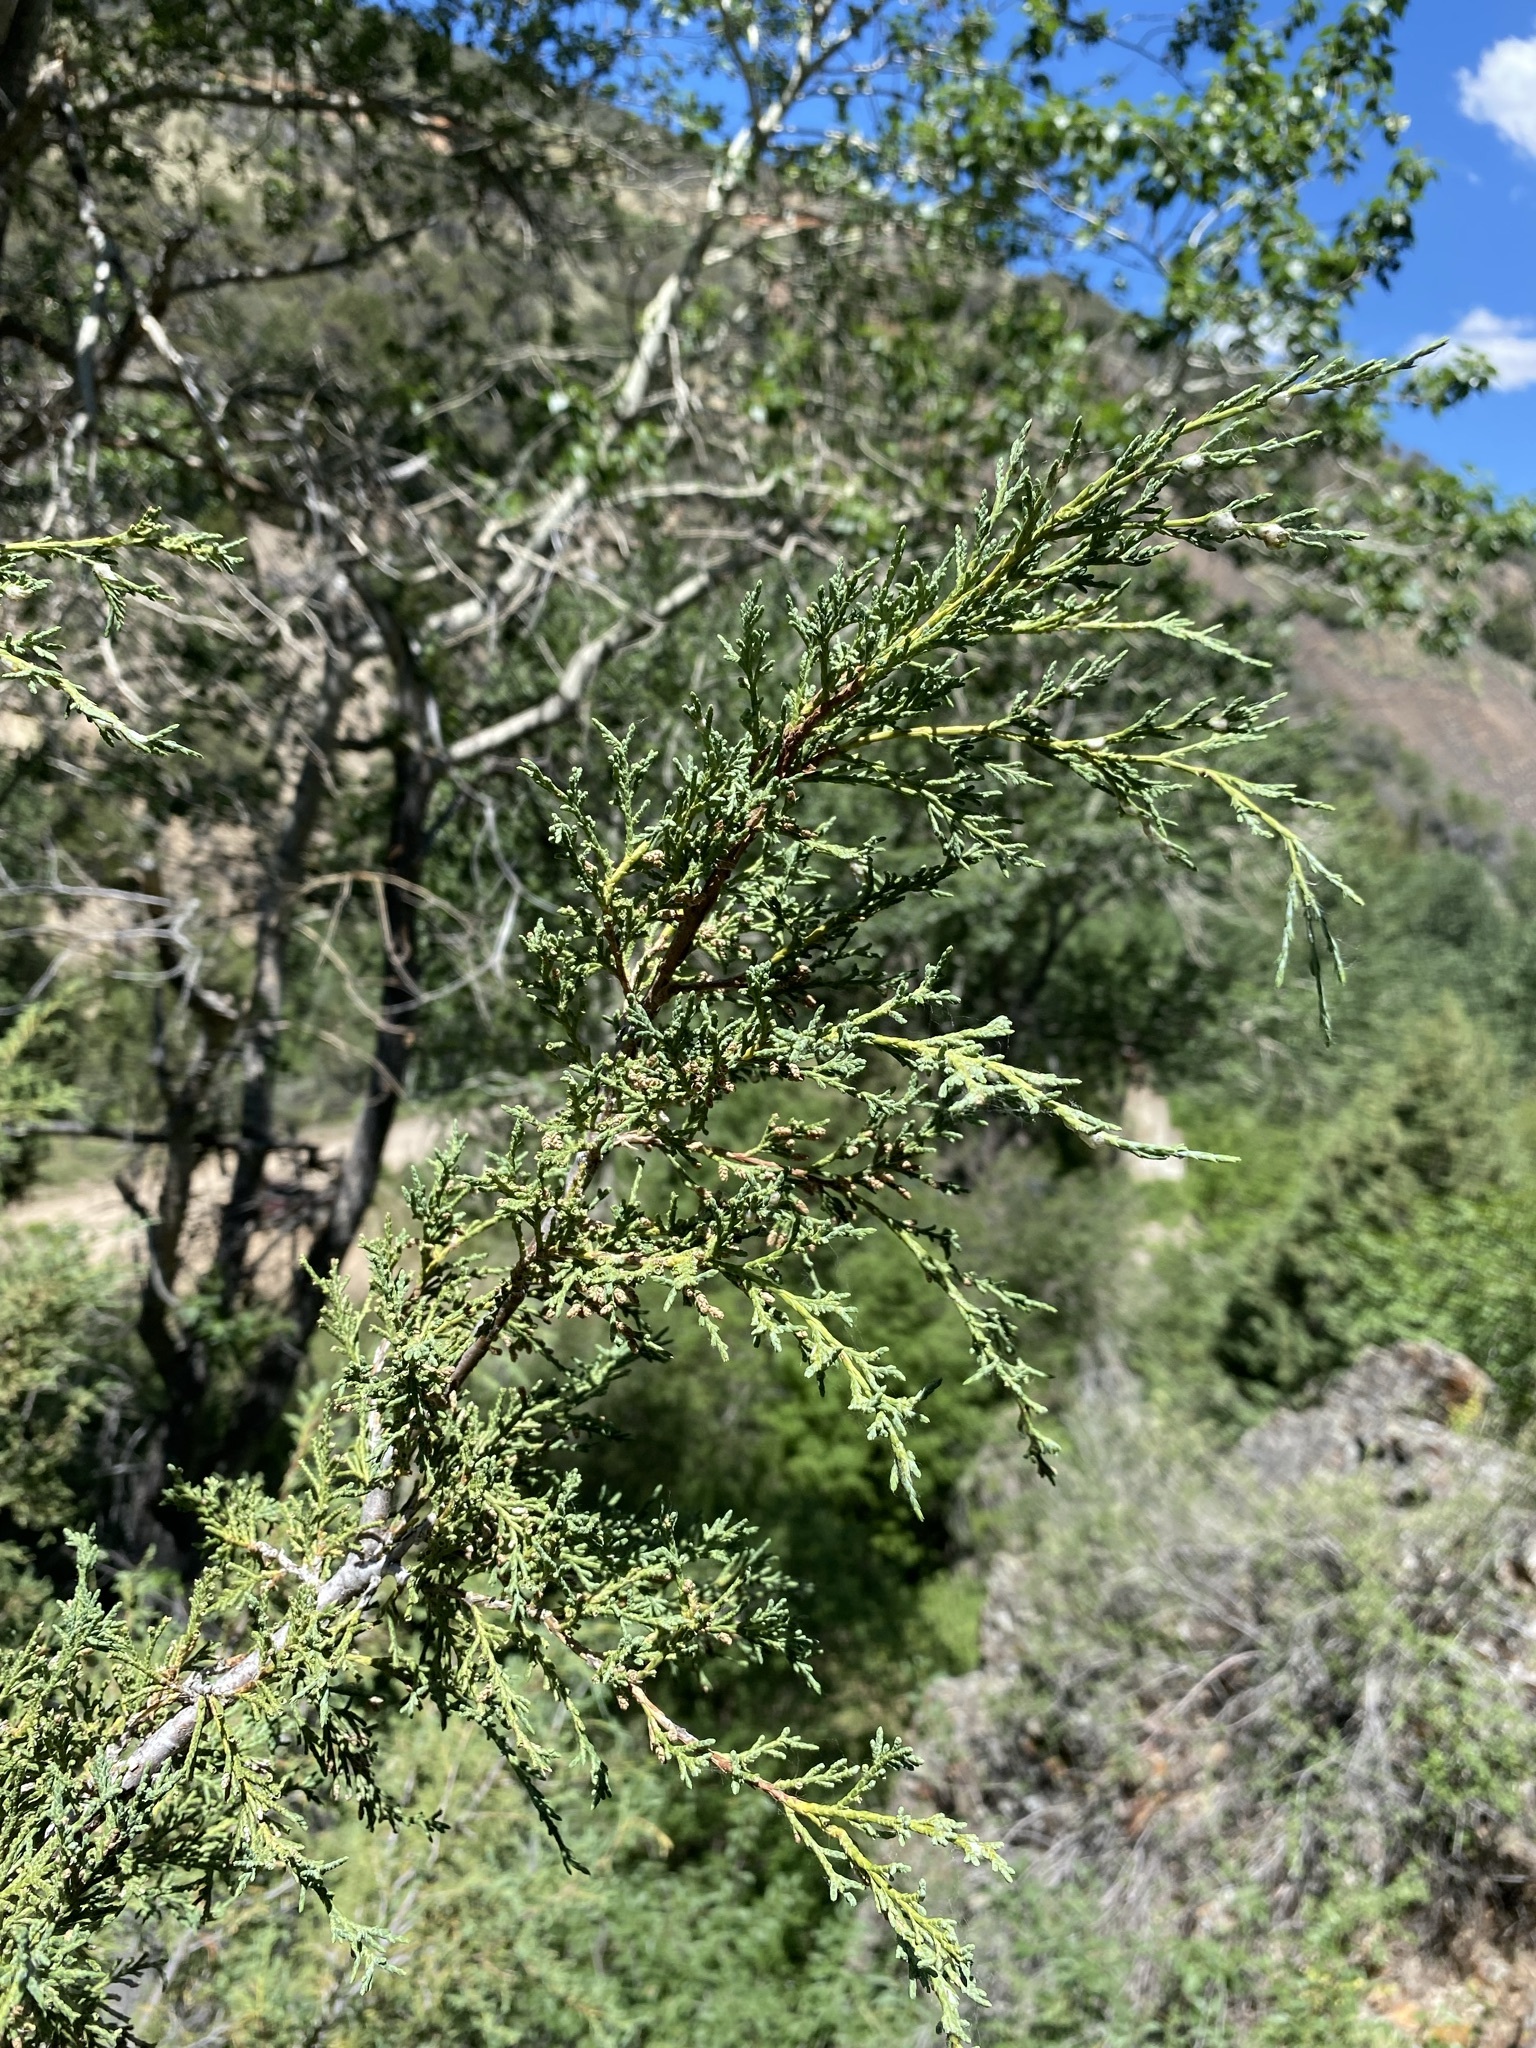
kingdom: Plantae
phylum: Tracheophyta
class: Pinopsida
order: Pinales
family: Cupressaceae
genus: Juniperus
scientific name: Juniperus scopulorum
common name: Rocky mountain juniper
